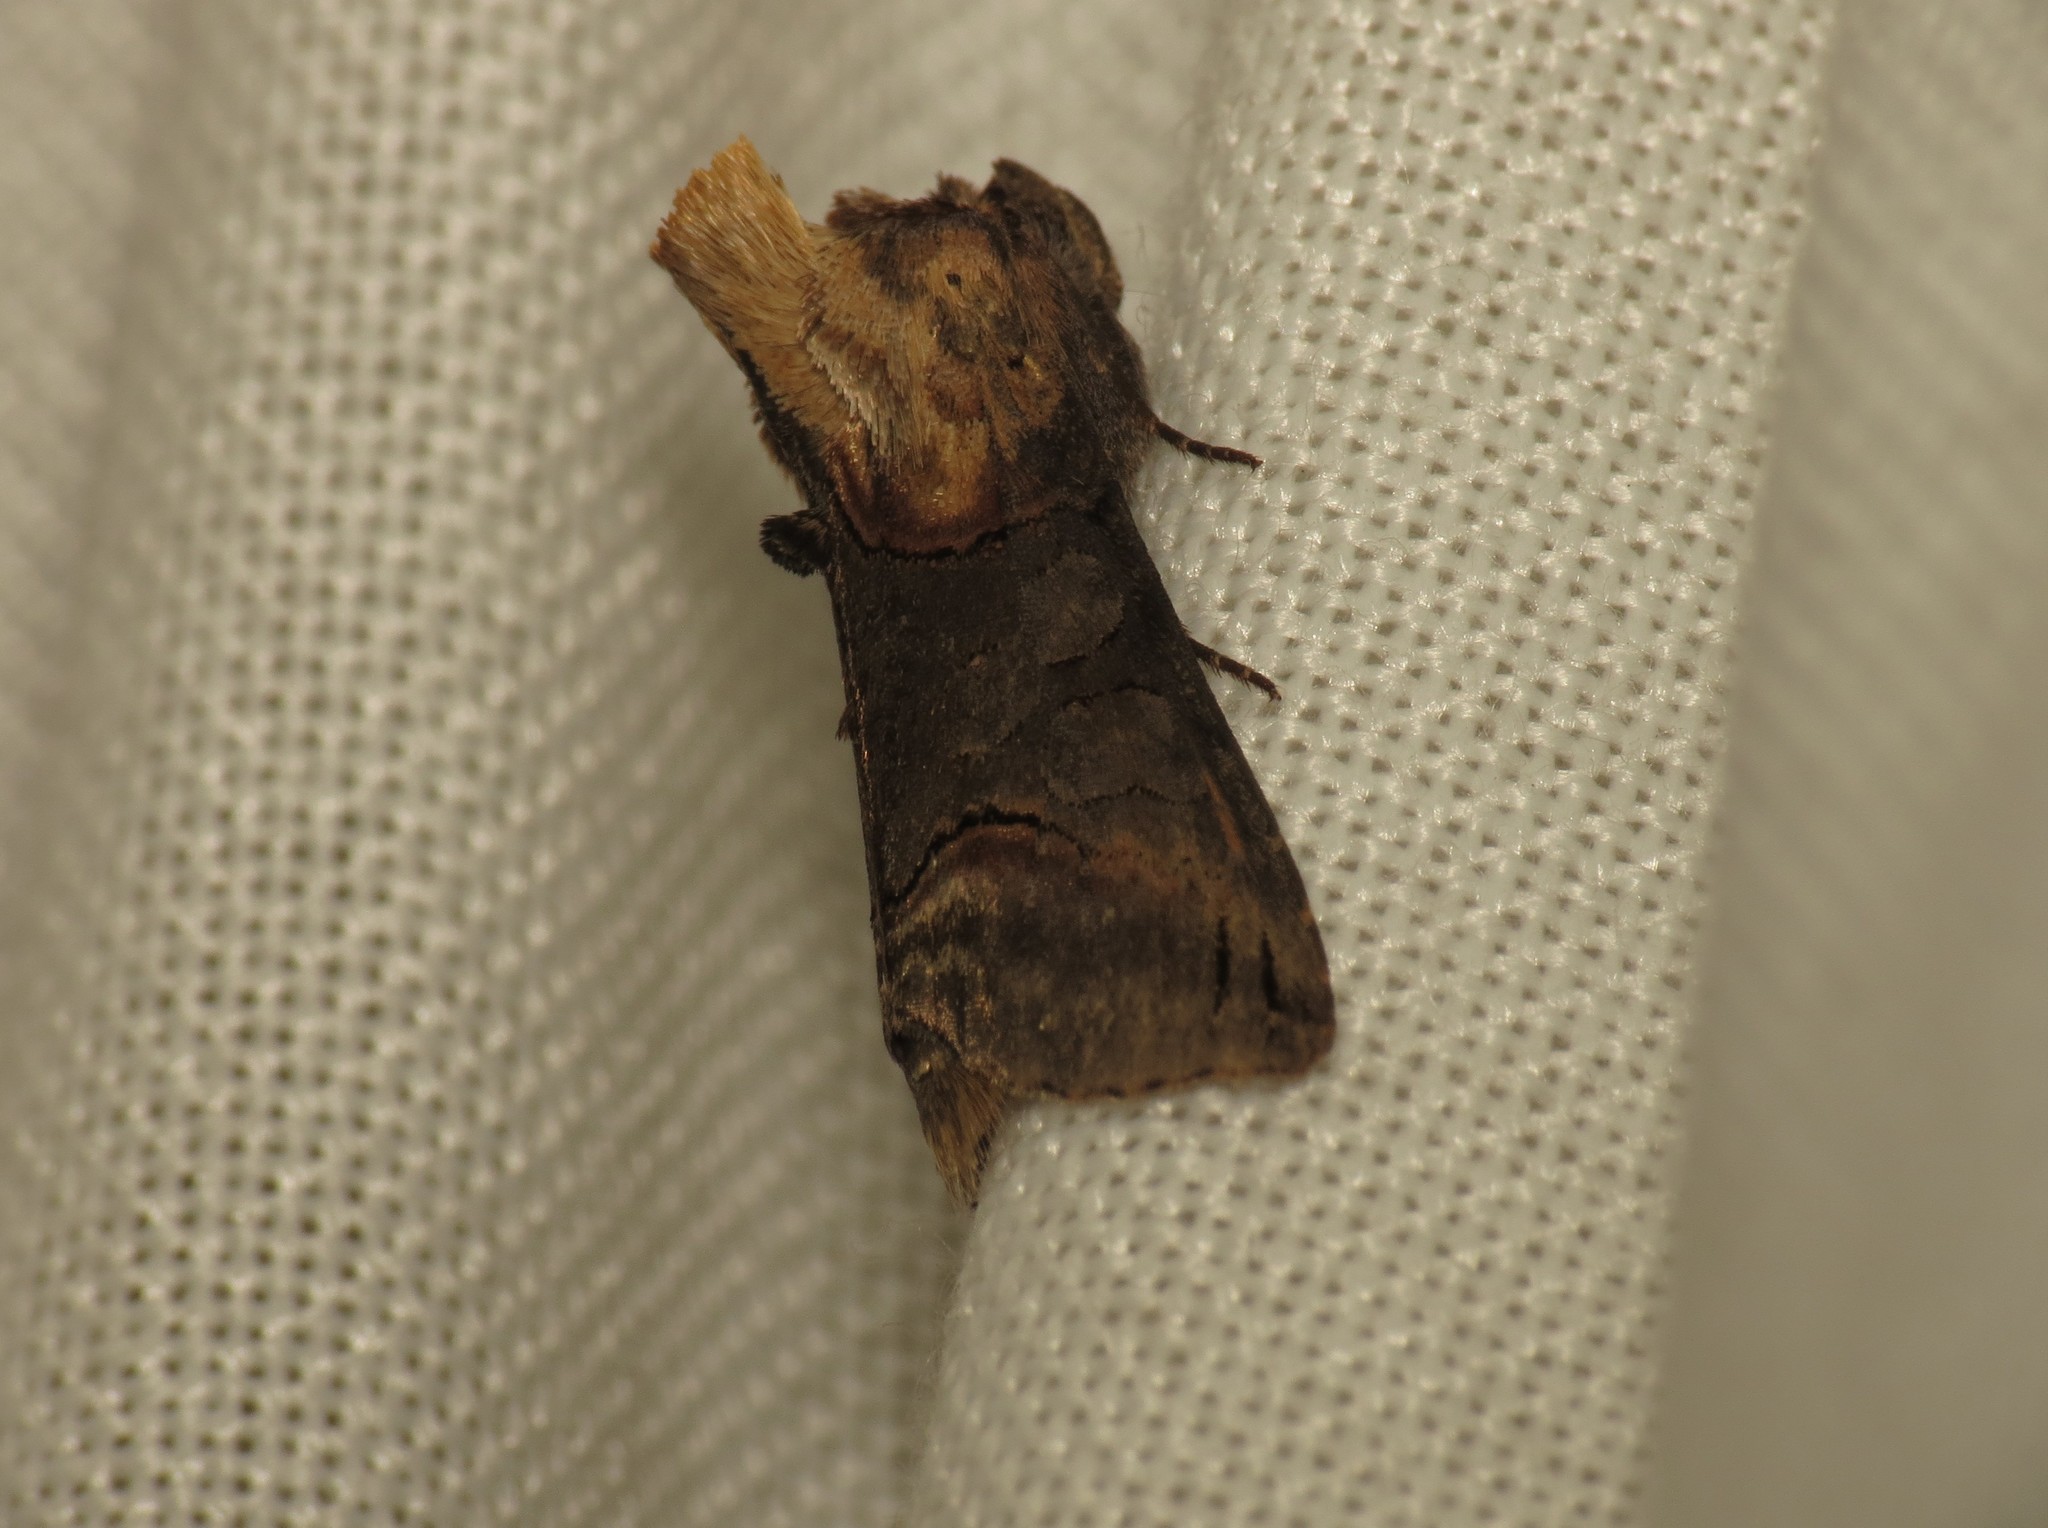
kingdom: Animalia
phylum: Arthropoda
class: Insecta
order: Lepidoptera
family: Noctuidae
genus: Abrostola
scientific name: Abrostola triplasia
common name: Dark spectacle
